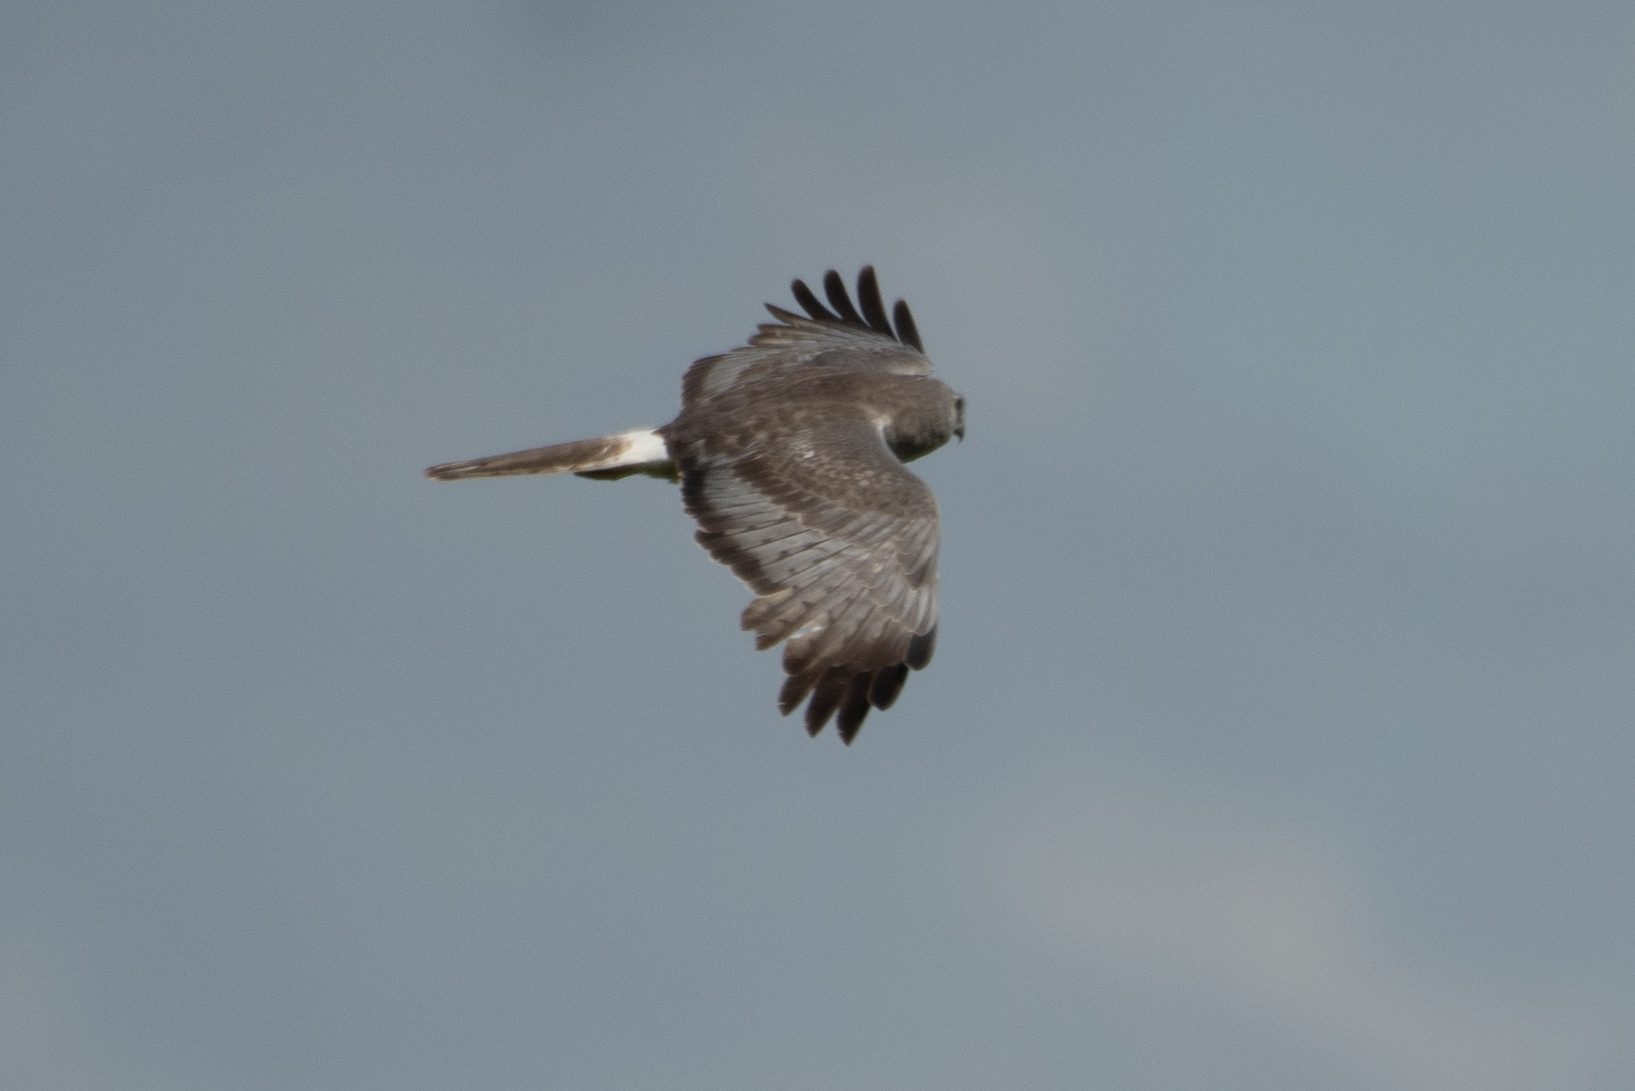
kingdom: Animalia
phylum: Chordata
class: Aves
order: Accipitriformes
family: Accipitridae
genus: Circus
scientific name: Circus cyaneus
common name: Hen harrier
